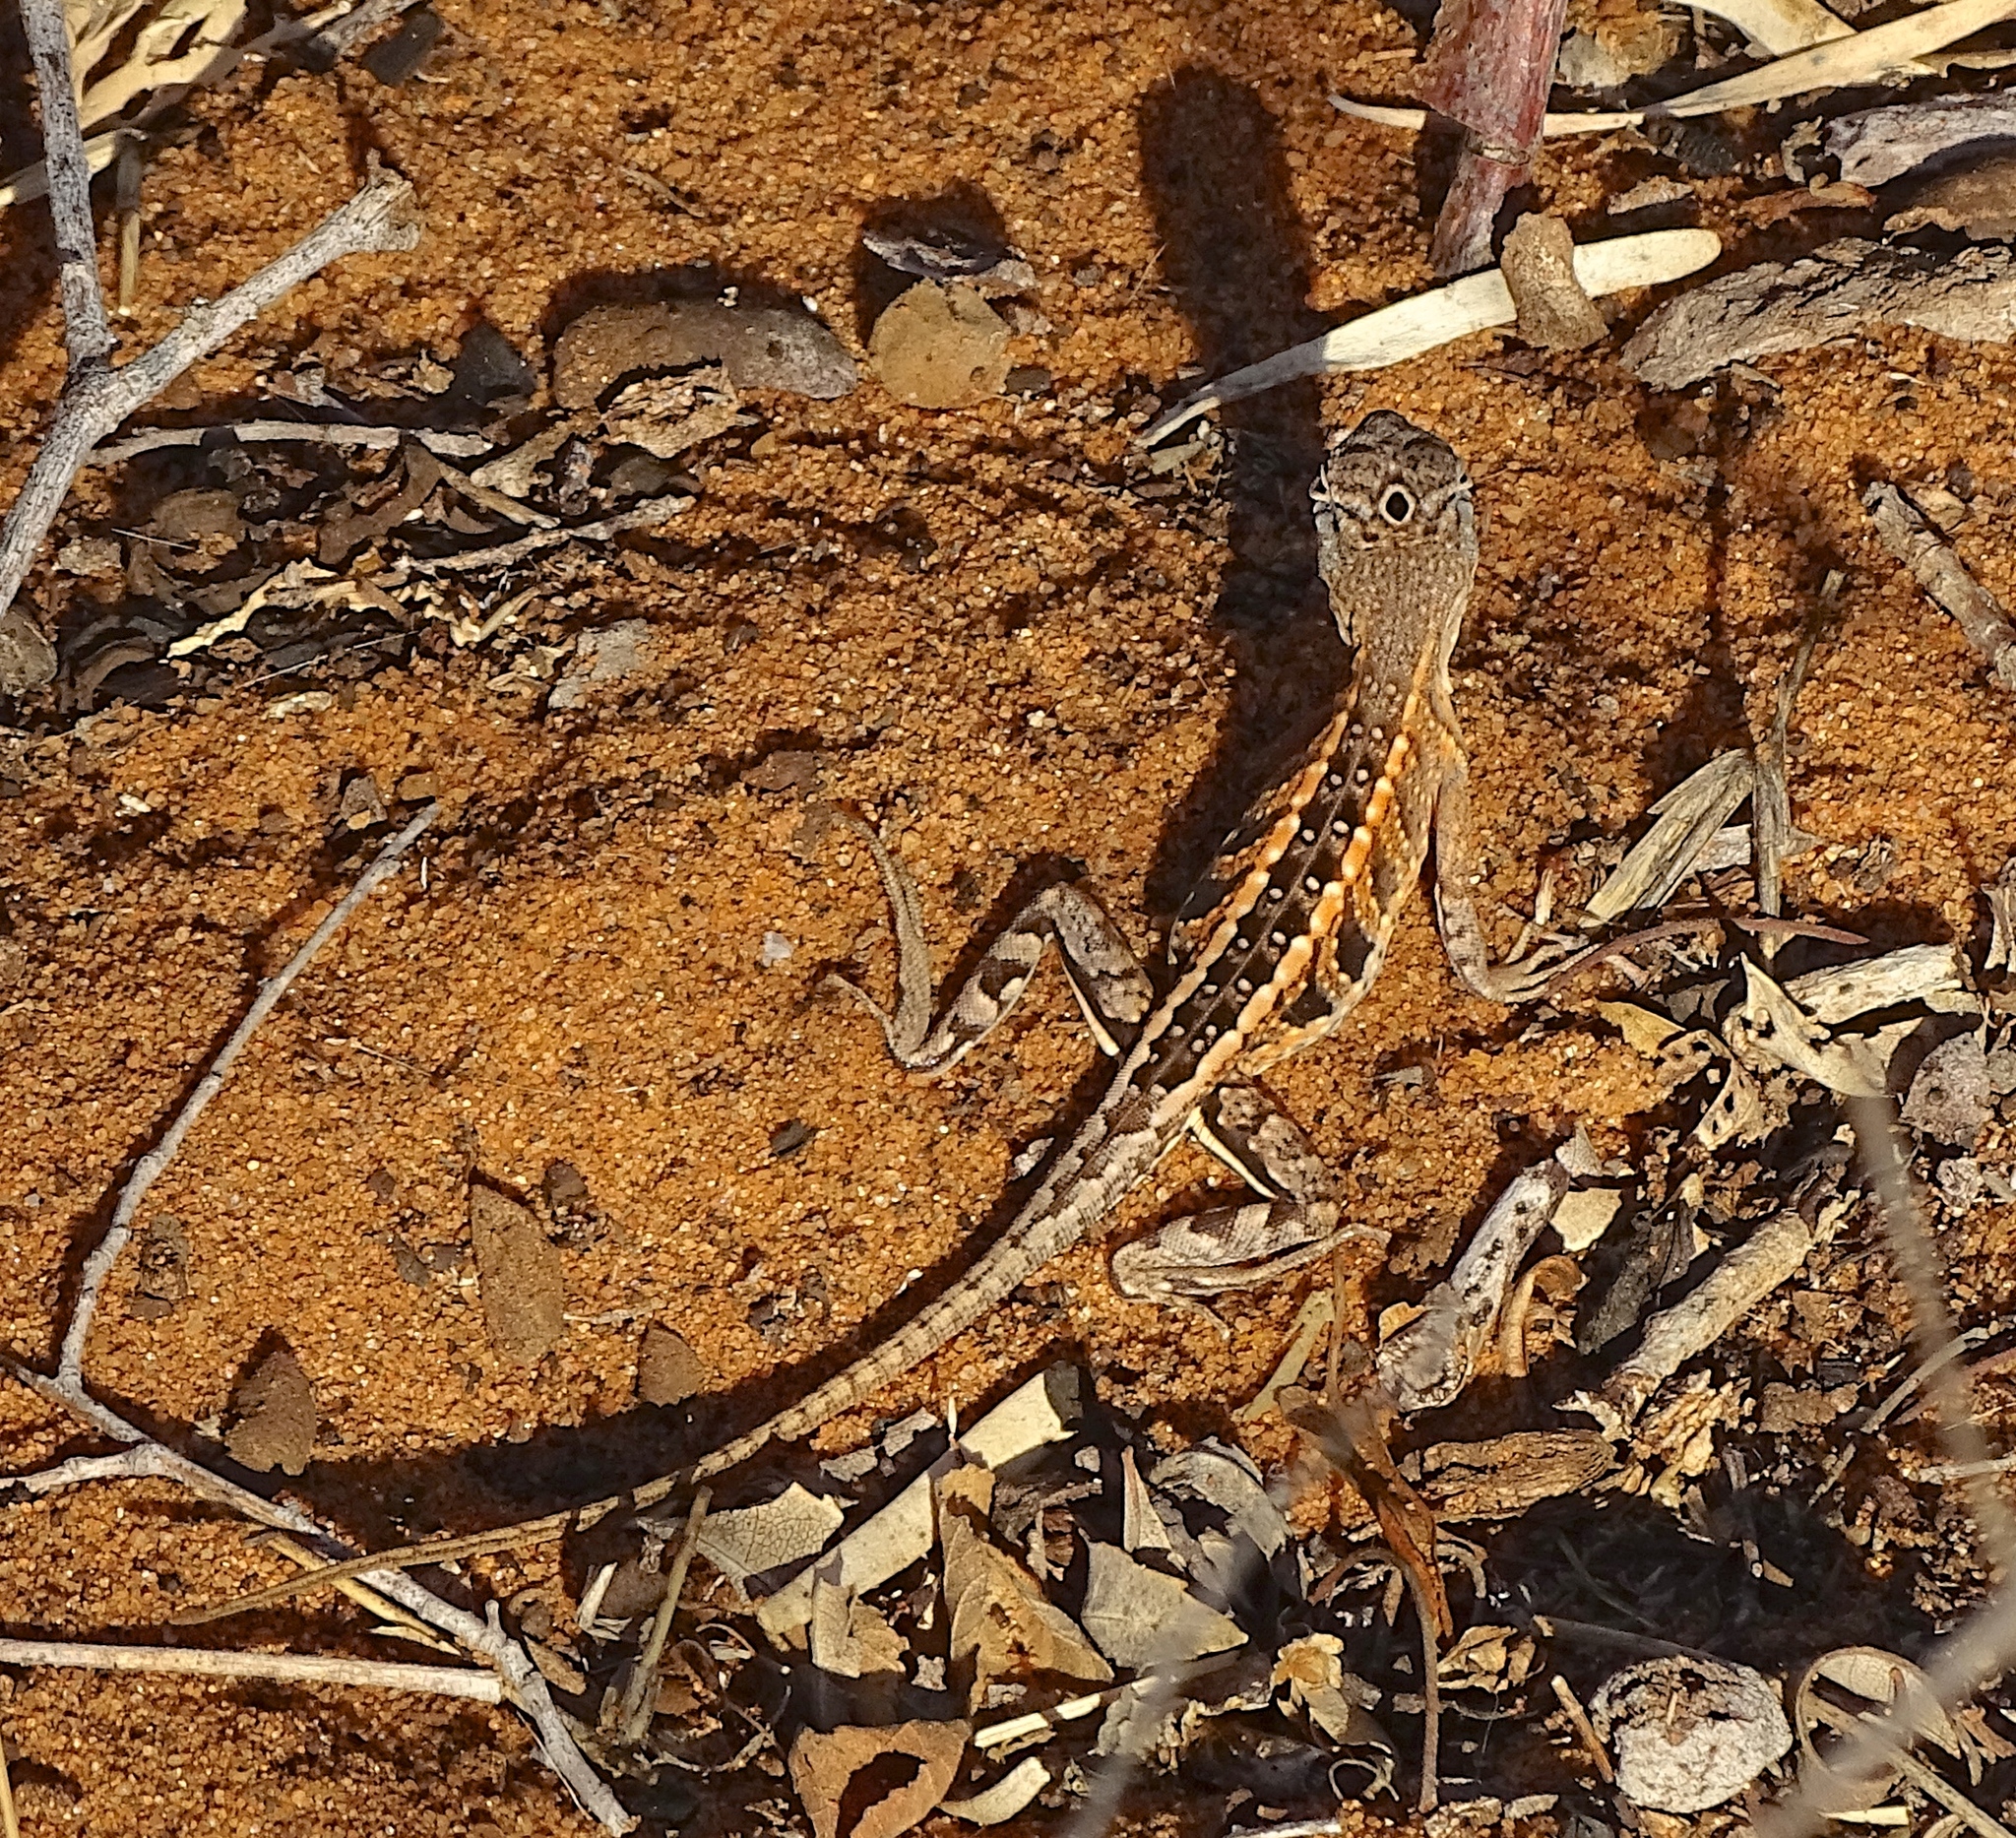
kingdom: Animalia
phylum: Chordata
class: Squamata
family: Opluridae
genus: Chalarodon
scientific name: Chalarodon madagascariensis
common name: Madagascar iguana
